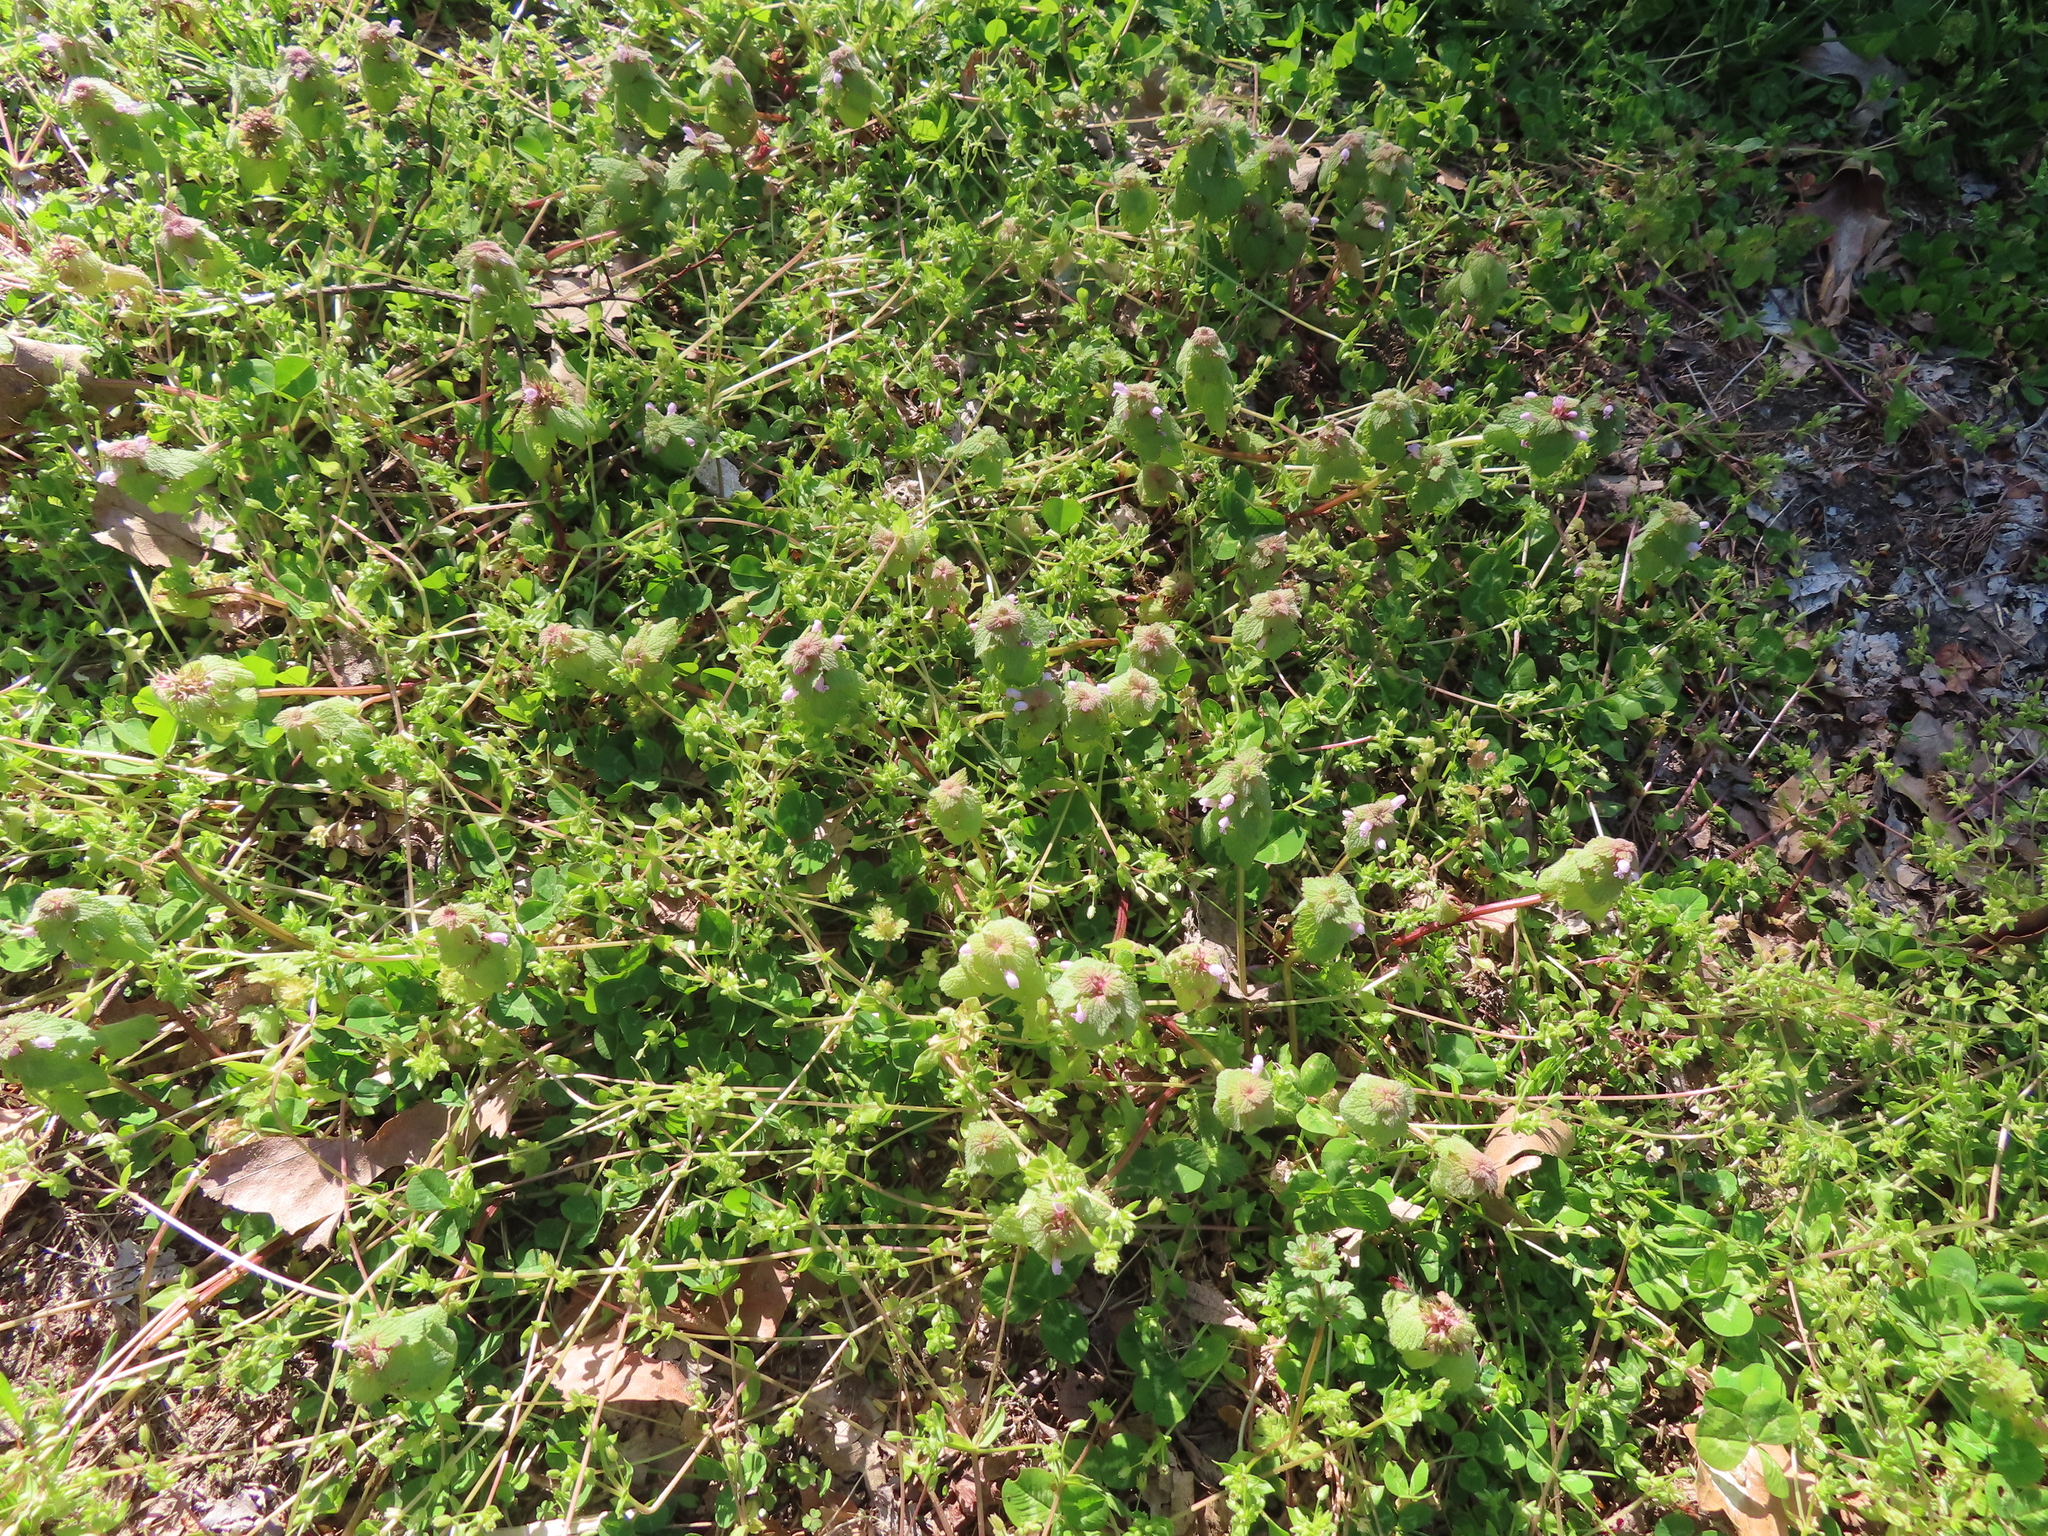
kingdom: Plantae
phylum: Tracheophyta
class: Magnoliopsida
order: Lamiales
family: Lamiaceae
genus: Lamium
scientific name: Lamium purpureum
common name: Red dead-nettle
